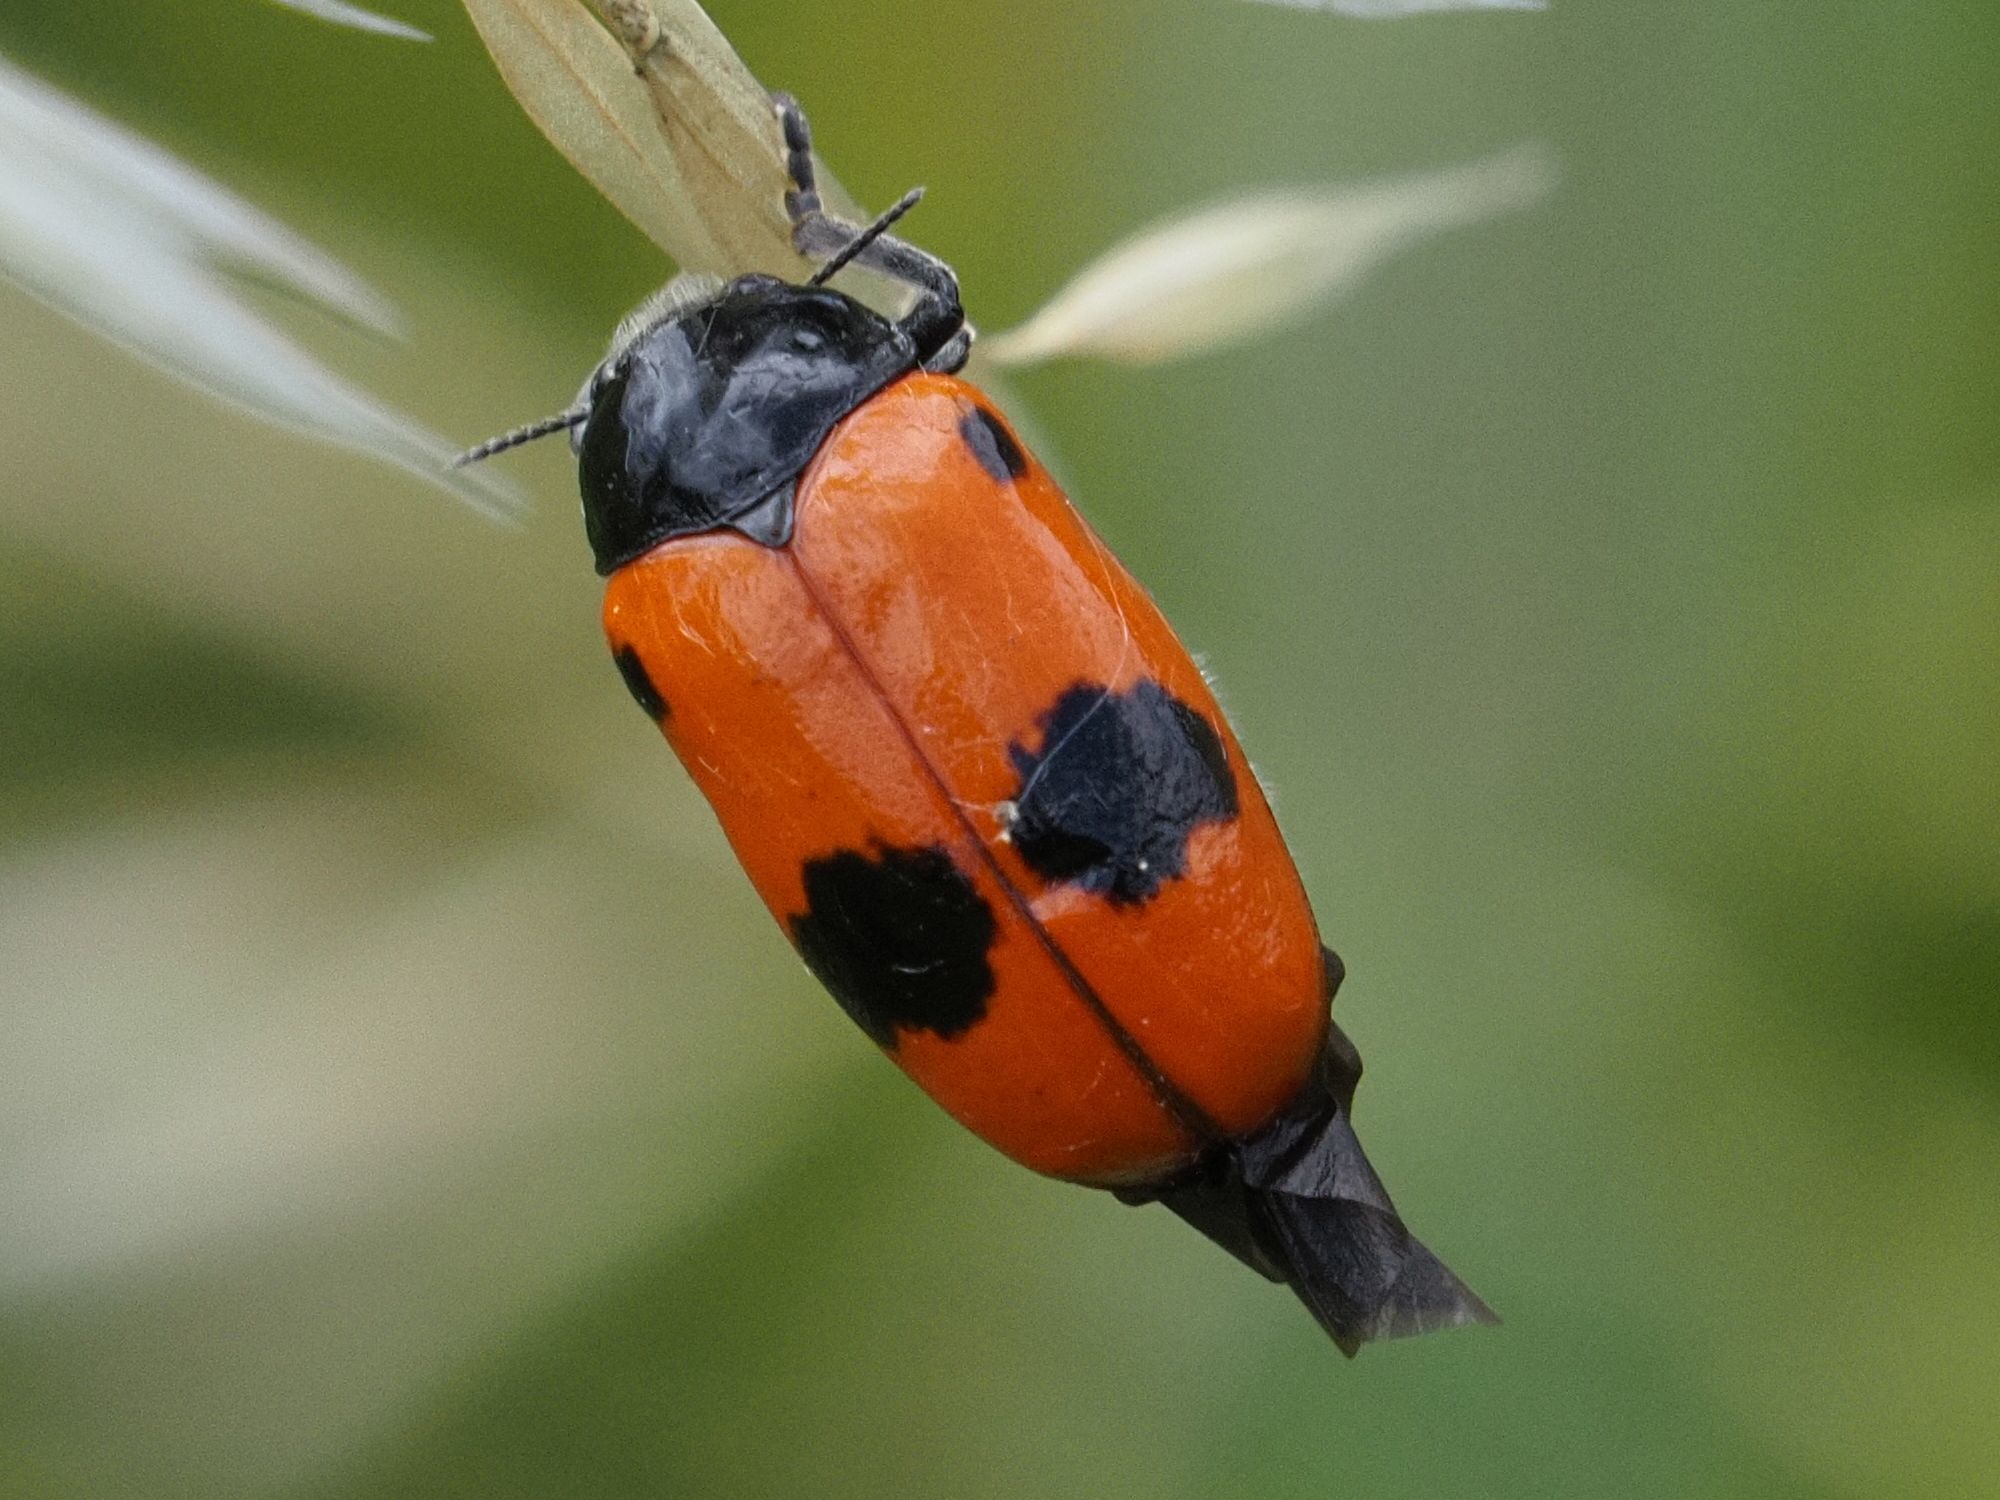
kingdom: Animalia
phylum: Arthropoda
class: Insecta
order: Coleoptera
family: Chrysomelidae
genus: Clytra
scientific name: Clytra laeviuscula
